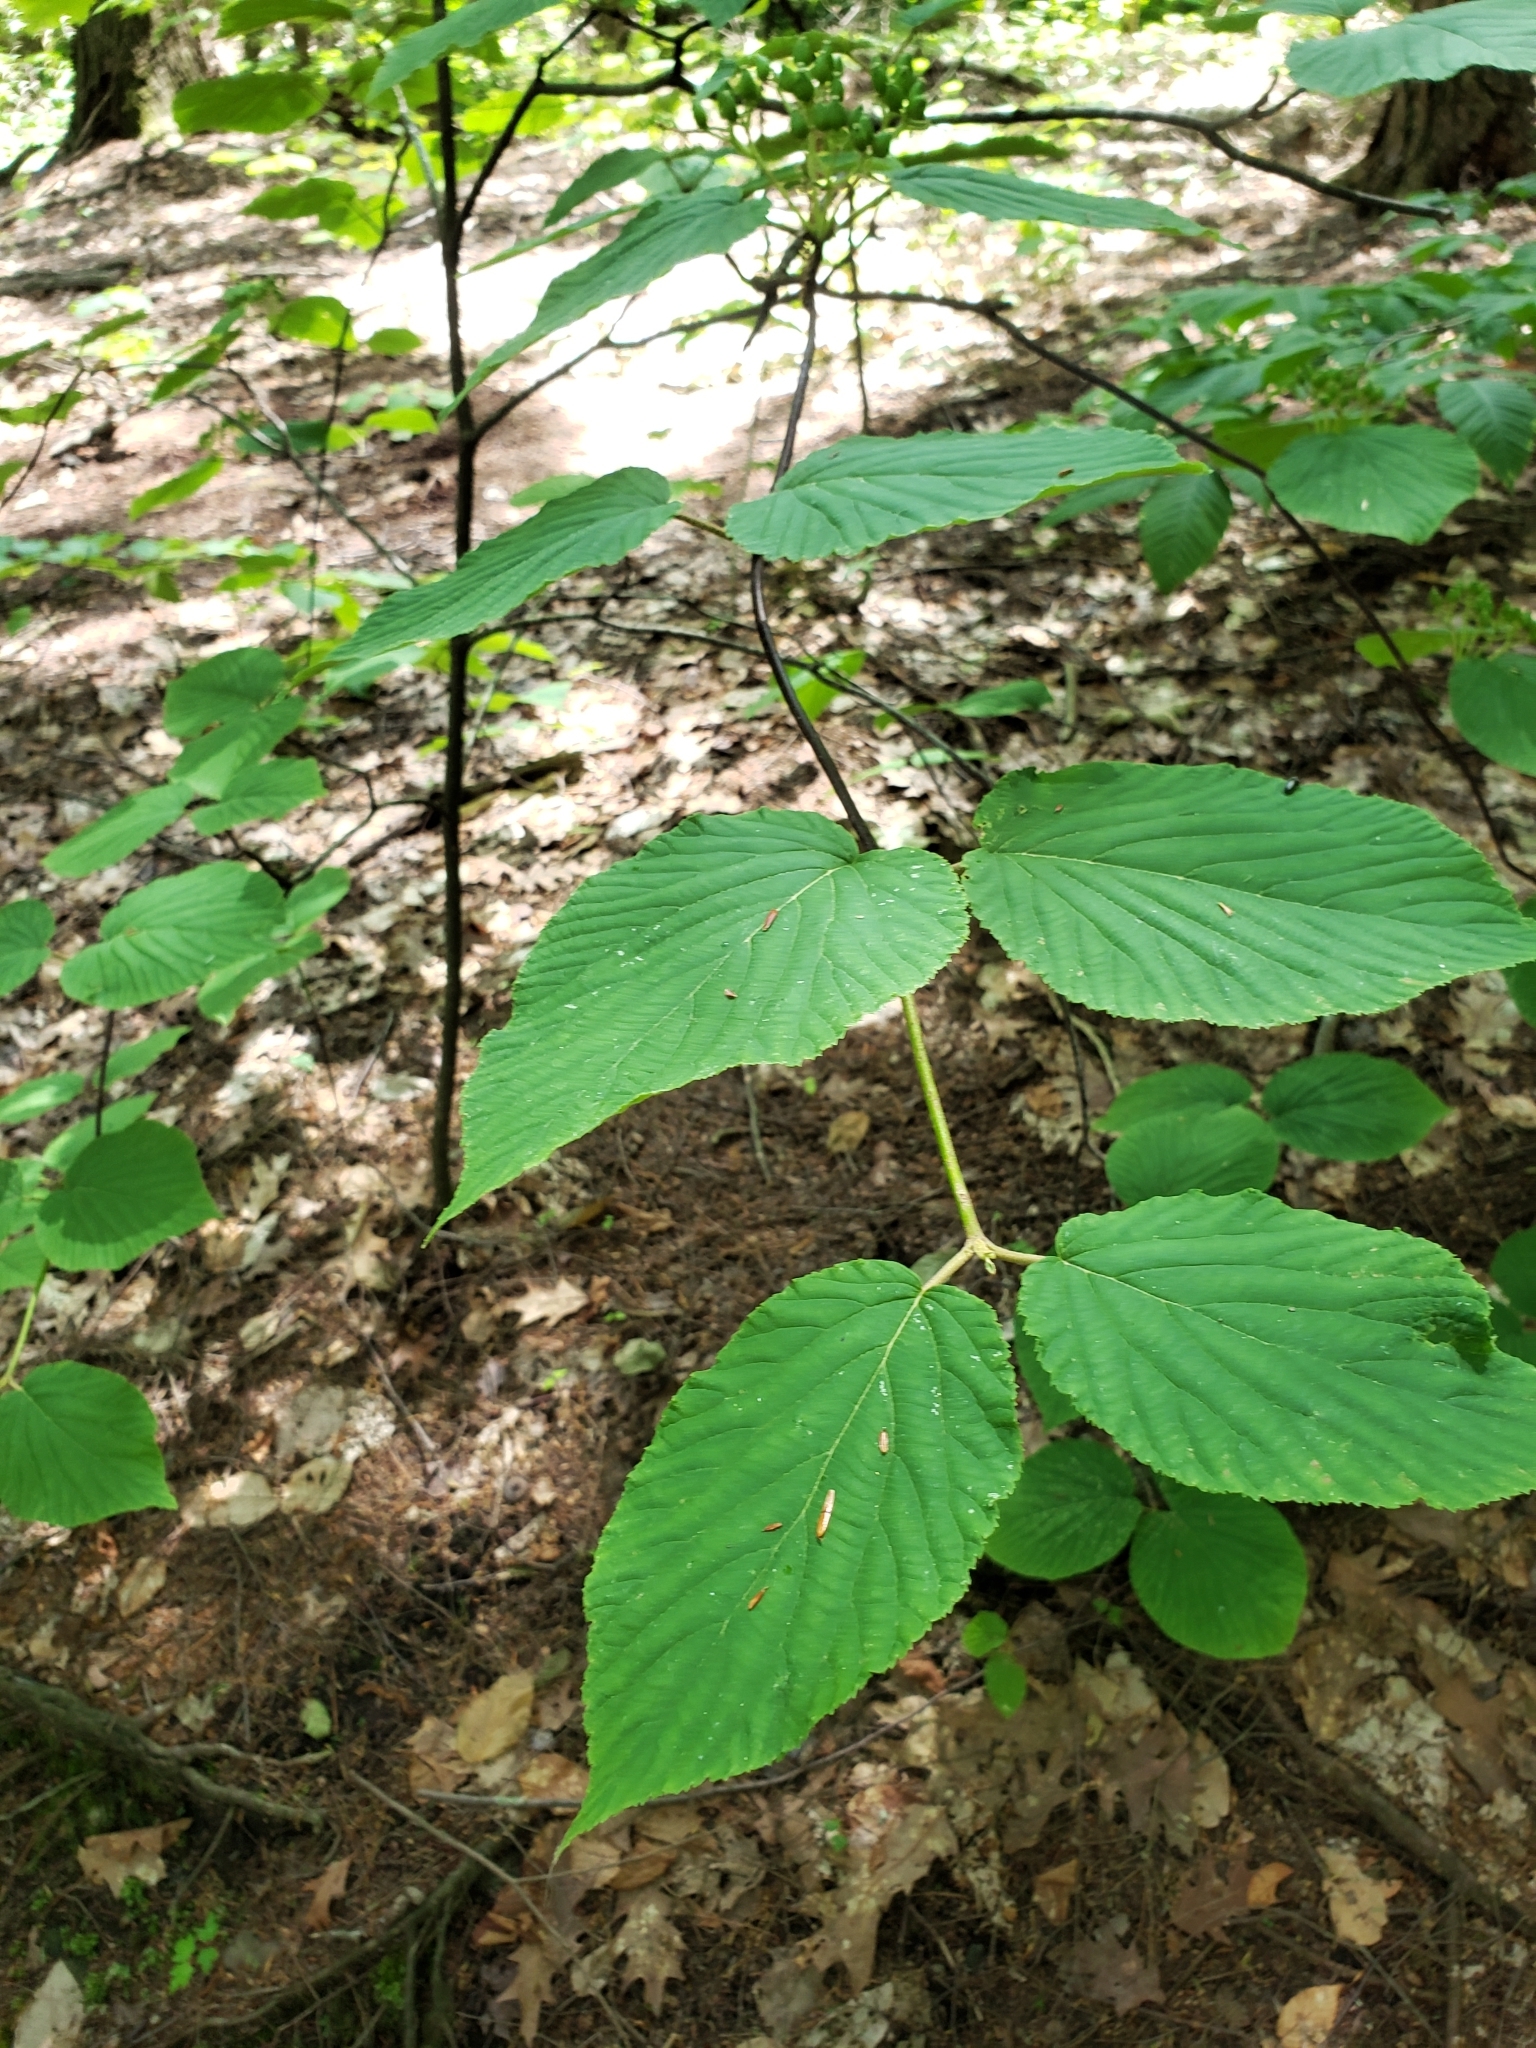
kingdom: Plantae
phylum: Tracheophyta
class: Magnoliopsida
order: Dipsacales
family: Viburnaceae
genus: Viburnum
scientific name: Viburnum lantanoides
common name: Hobblebush
